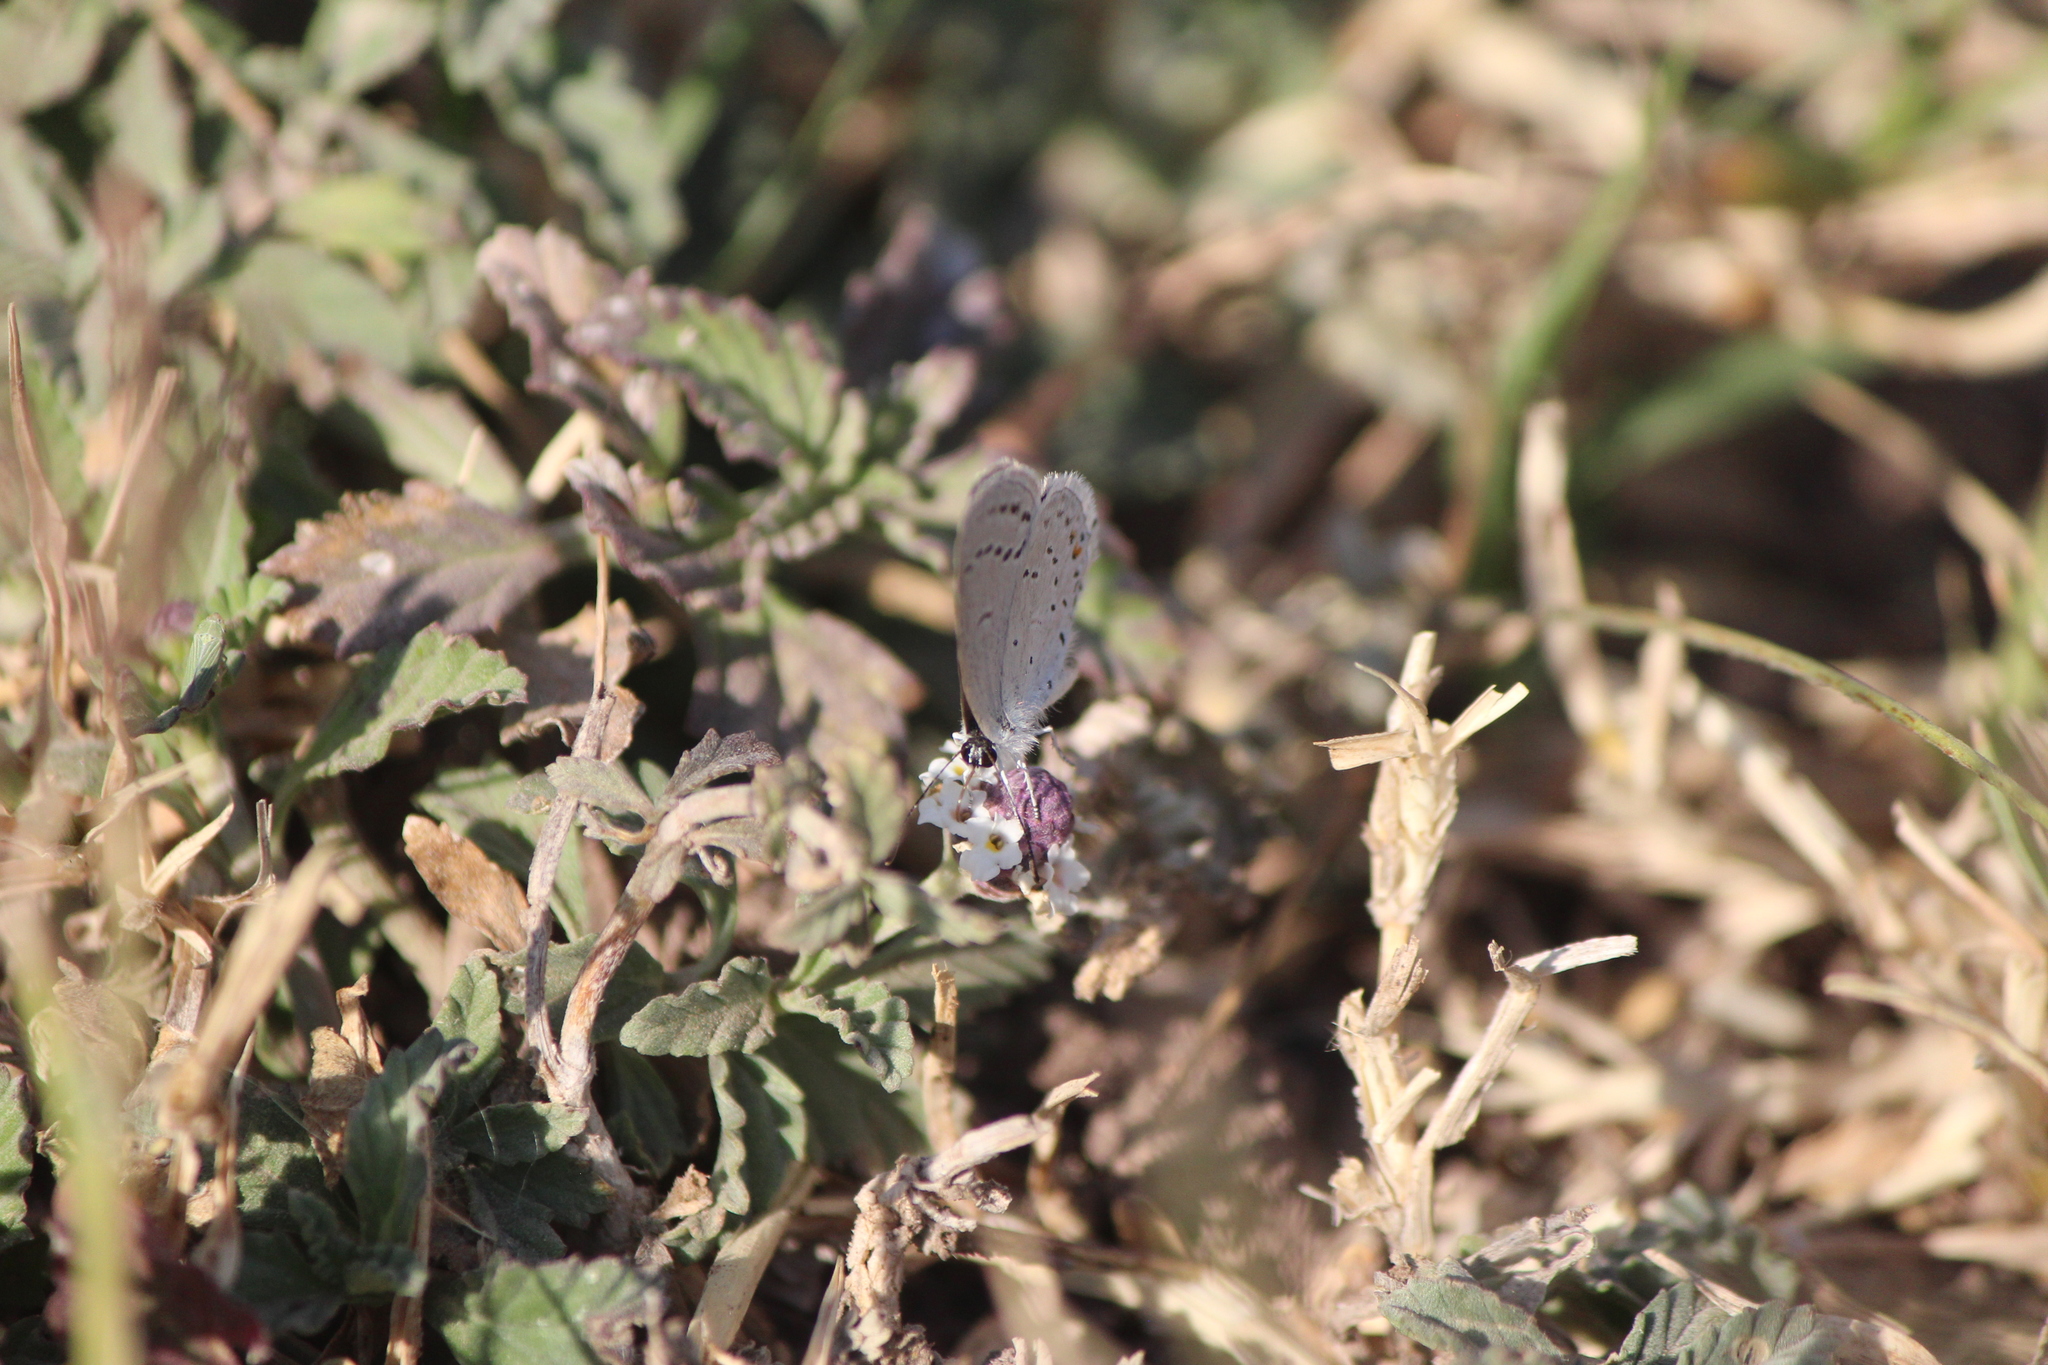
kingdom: Animalia
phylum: Arthropoda
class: Insecta
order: Lepidoptera
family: Lycaenidae
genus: Elkalyce
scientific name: Elkalyce comyntas
